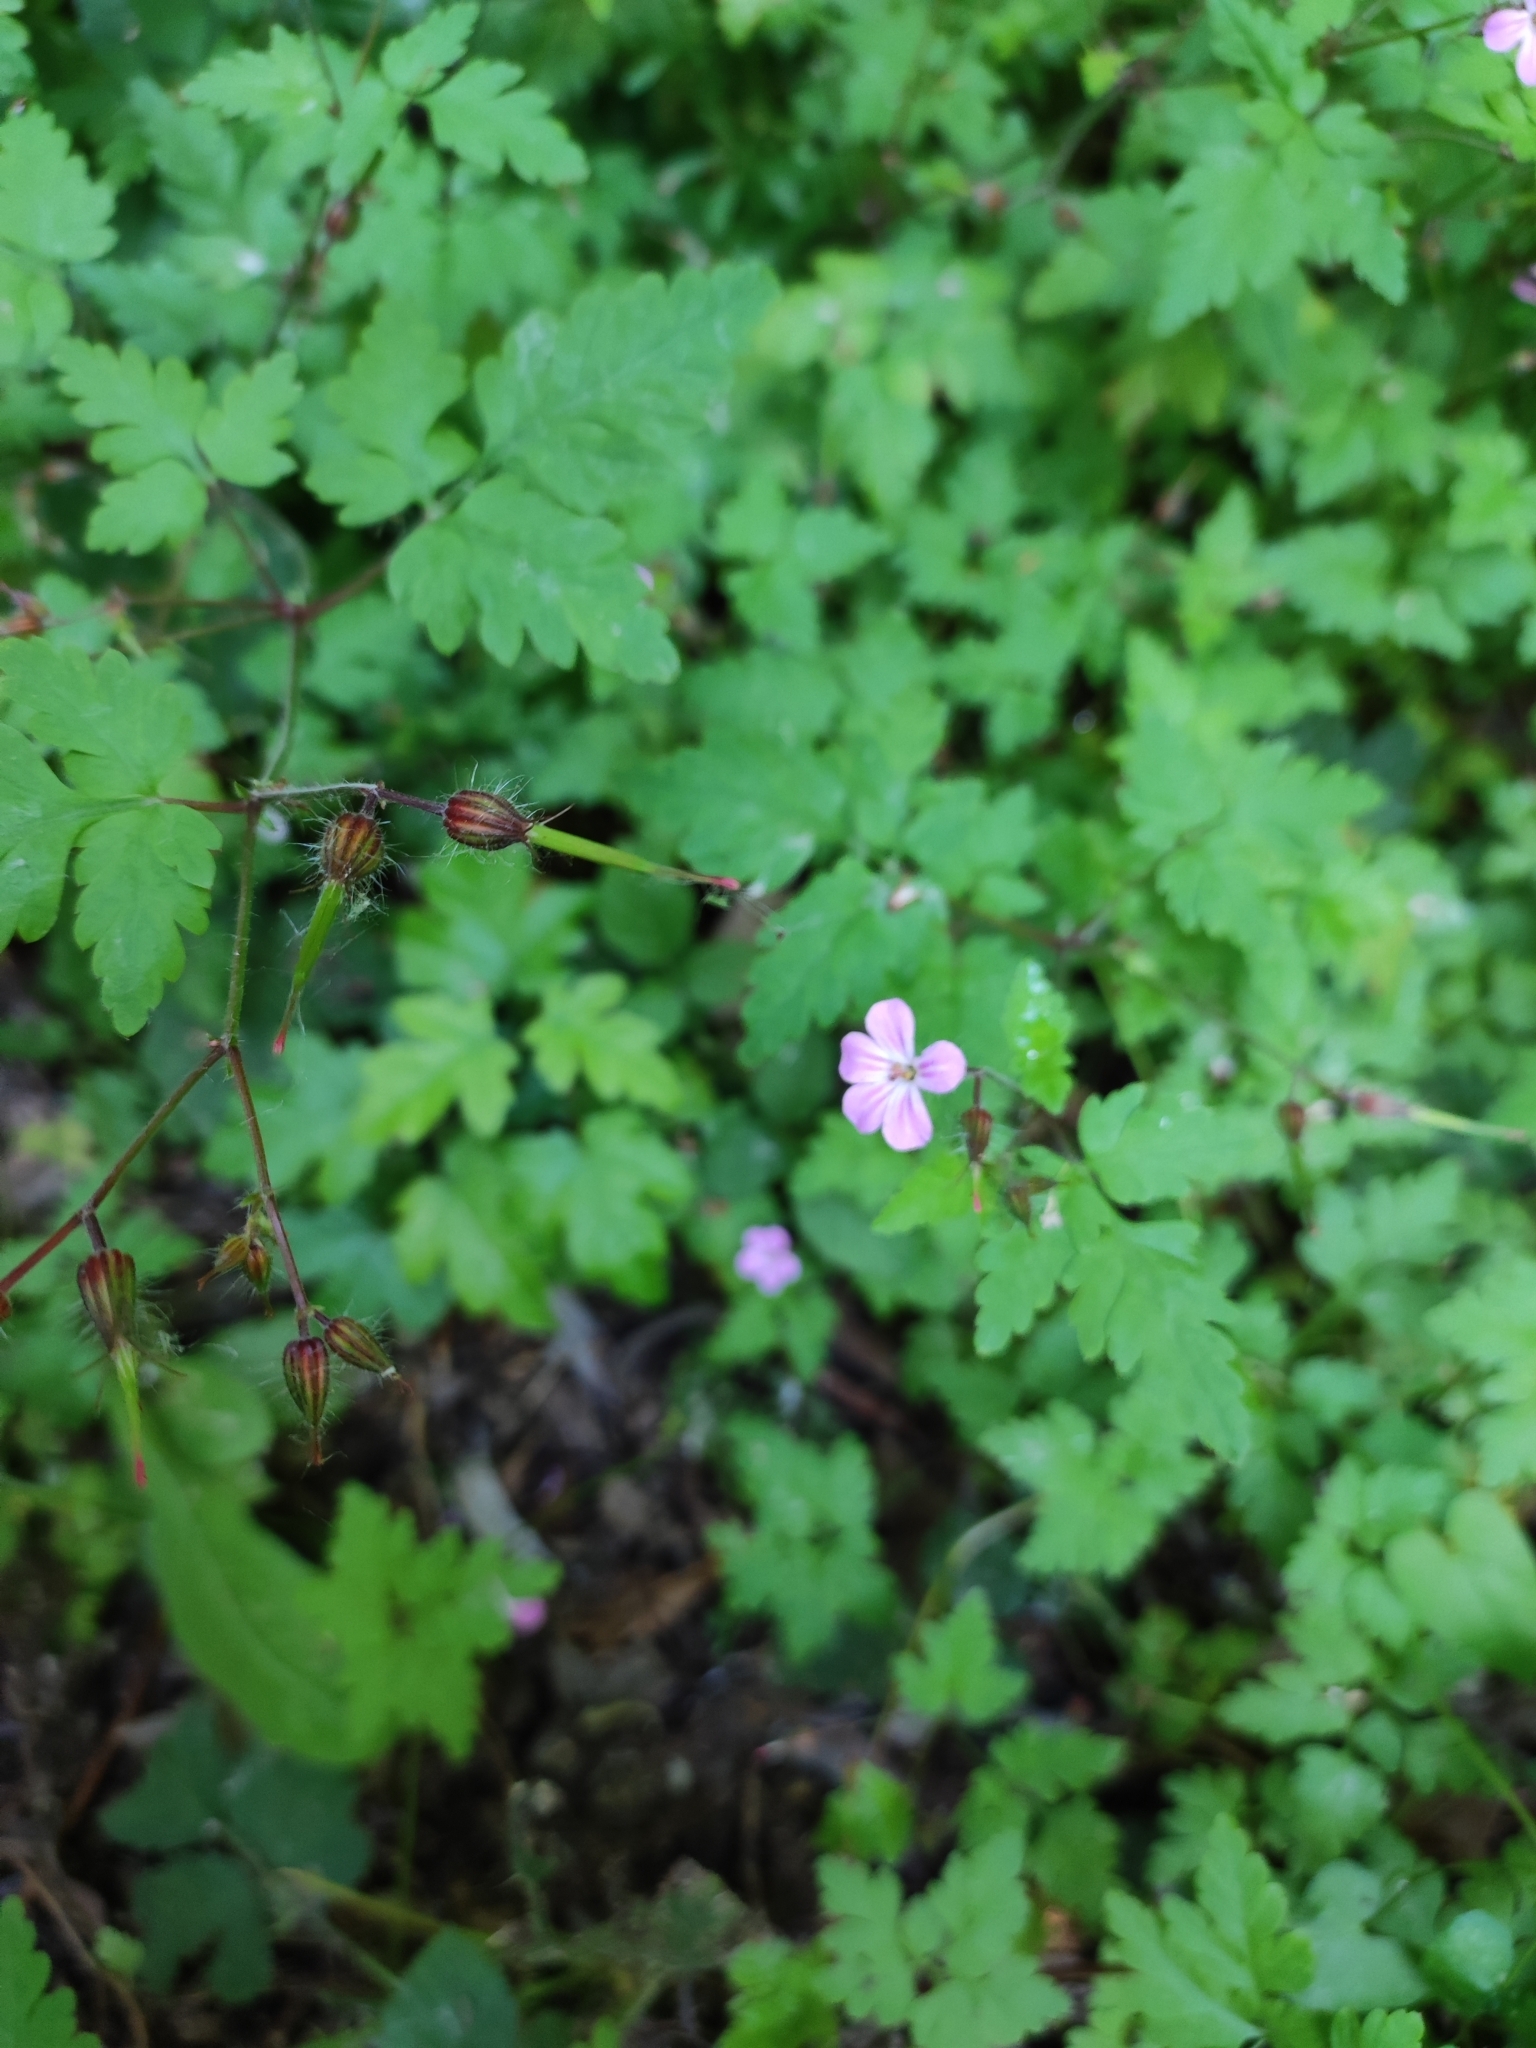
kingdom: Plantae
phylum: Tracheophyta
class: Magnoliopsida
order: Geraniales
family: Geraniaceae
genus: Geranium
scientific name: Geranium robertianum
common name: Herb-robert
